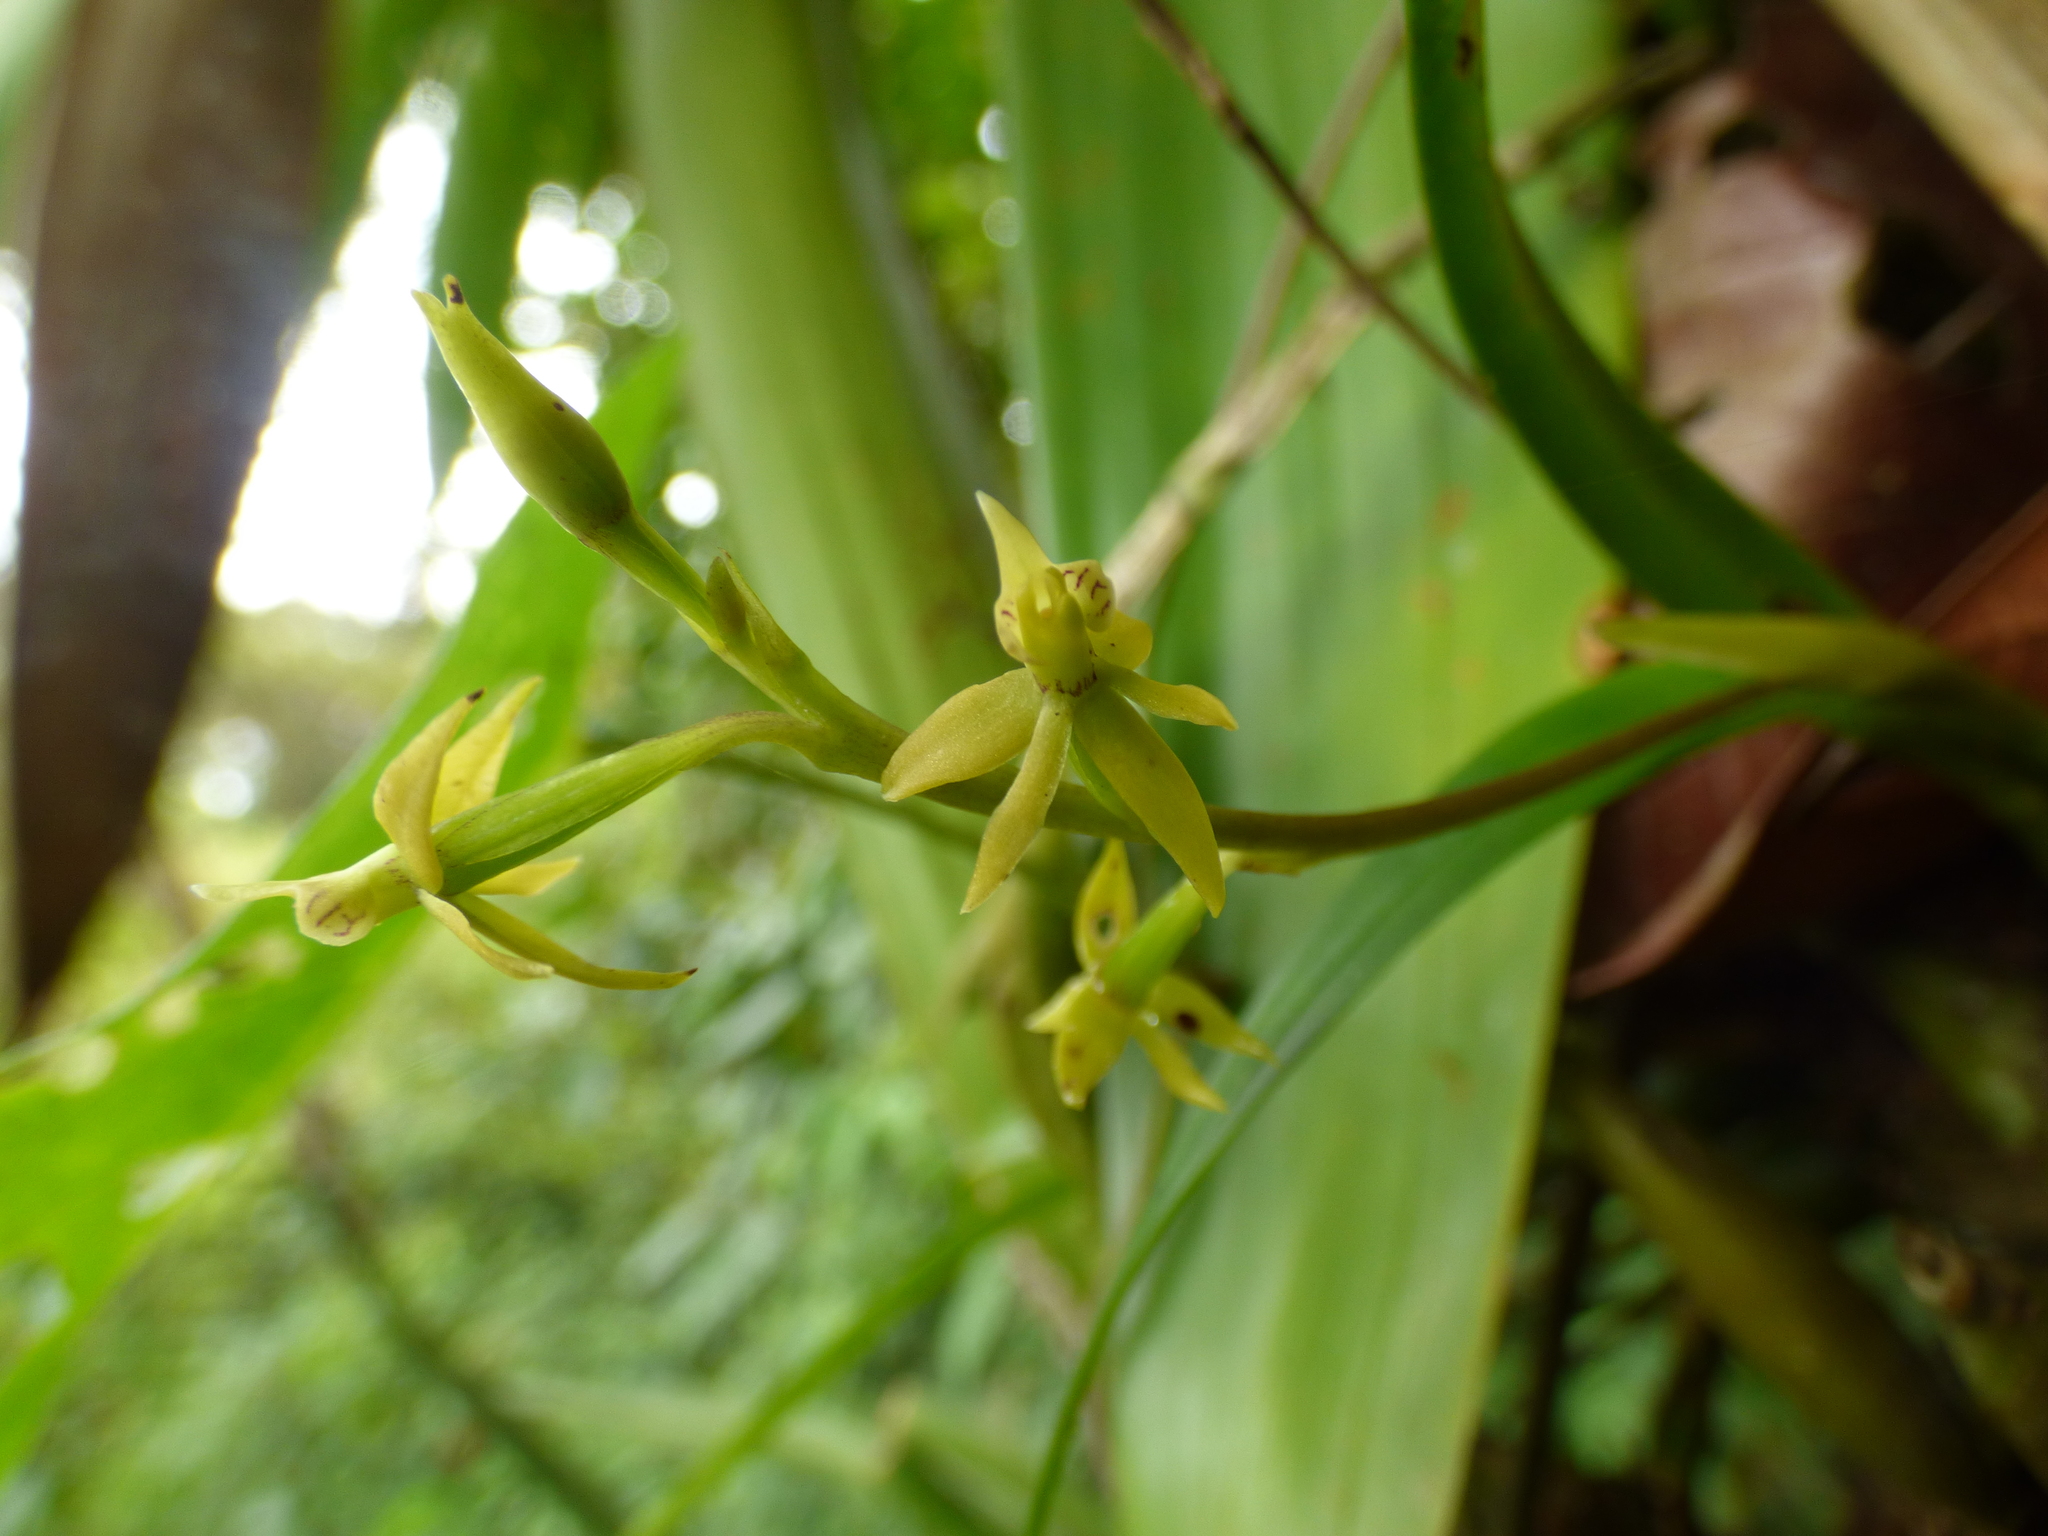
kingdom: Plantae
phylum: Tracheophyta
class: Liliopsida
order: Asparagales
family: Orchidaceae
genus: Prosthechea
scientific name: Prosthechea grammatoglossa
